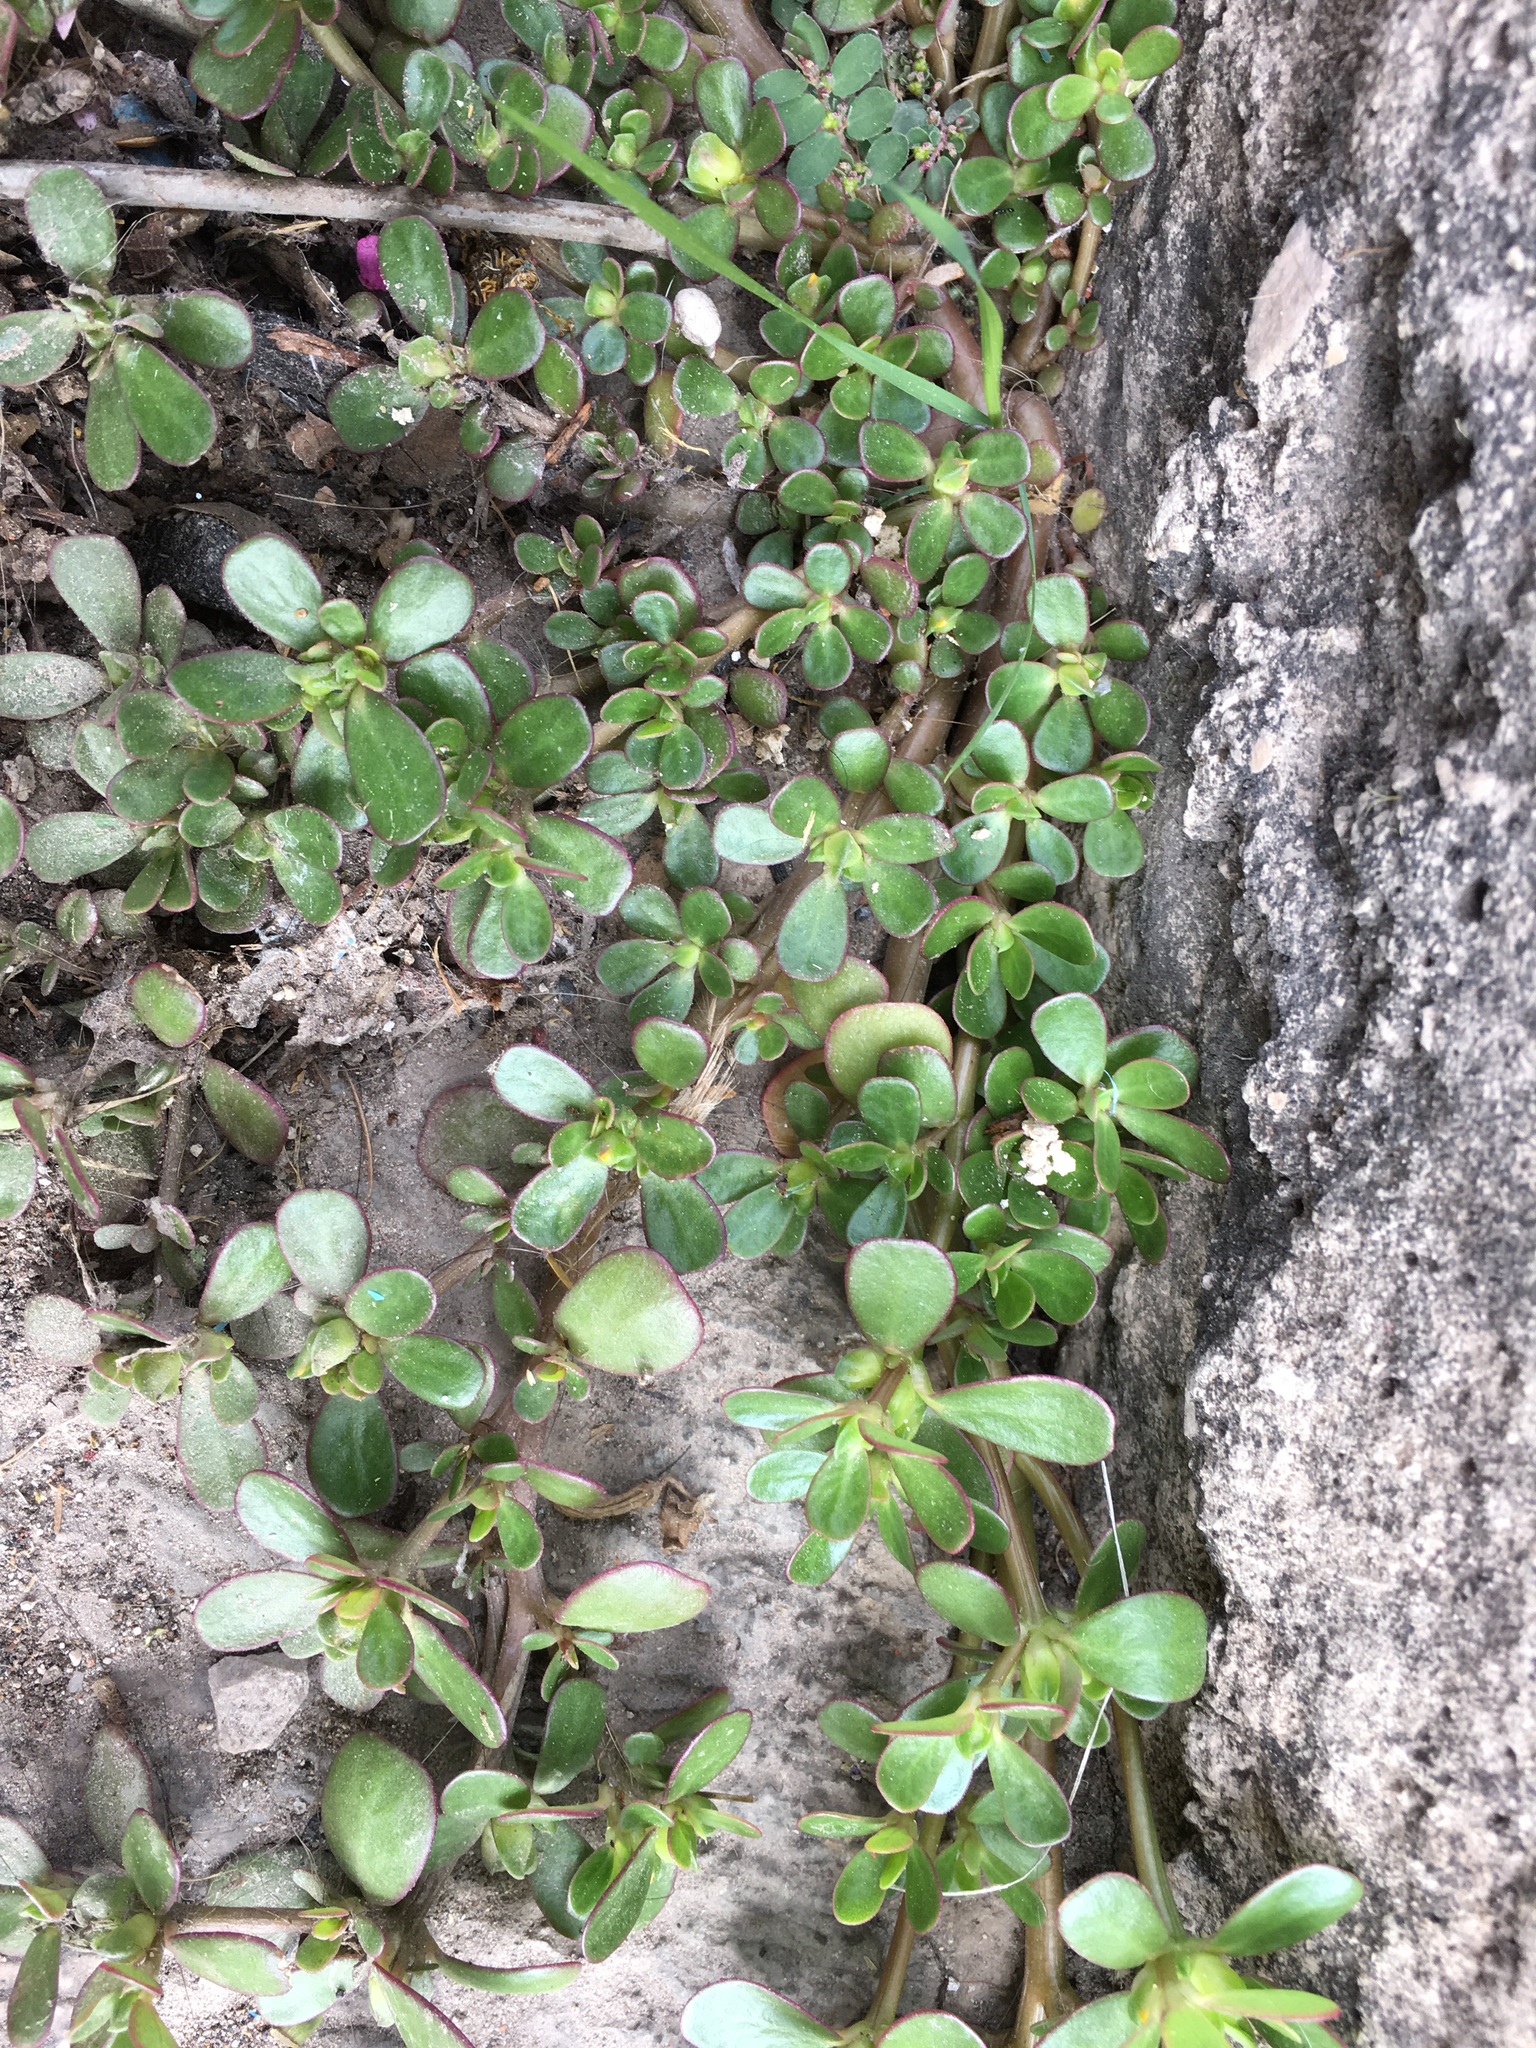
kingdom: Plantae
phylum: Tracheophyta
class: Magnoliopsida
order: Caryophyllales
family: Portulacaceae
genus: Portulaca
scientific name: Portulaca oleracea
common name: Common purslane
